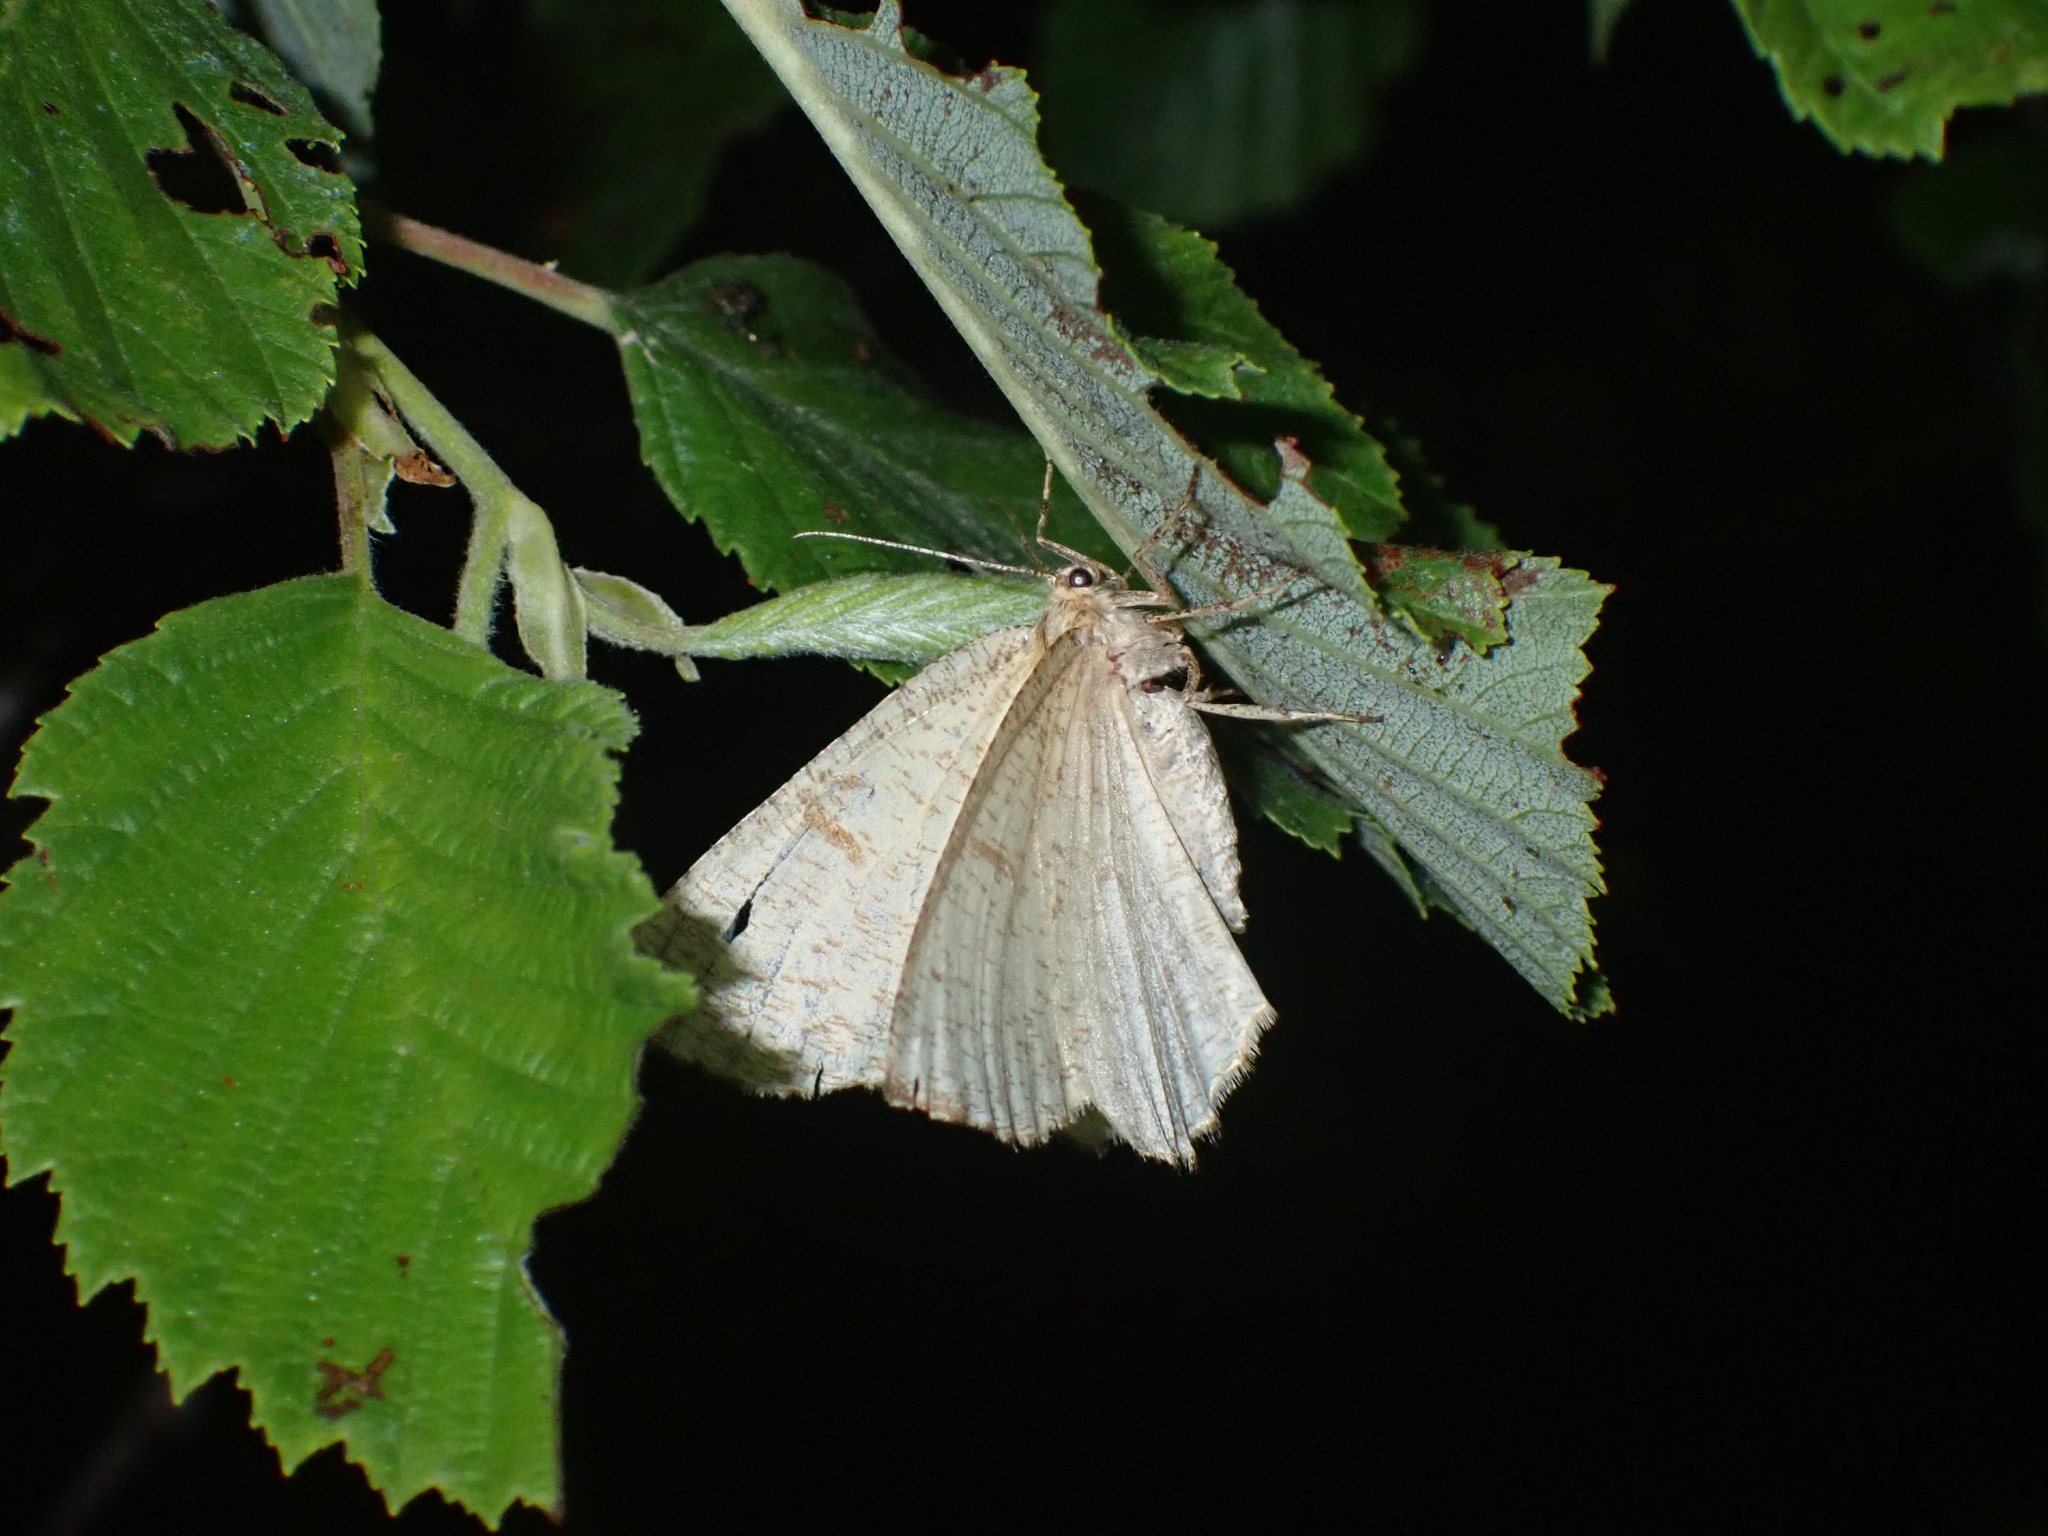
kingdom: Animalia
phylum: Arthropoda
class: Insecta
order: Lepidoptera
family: Geometridae
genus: Angerona
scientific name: Angerona prunaria
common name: Orange moth
